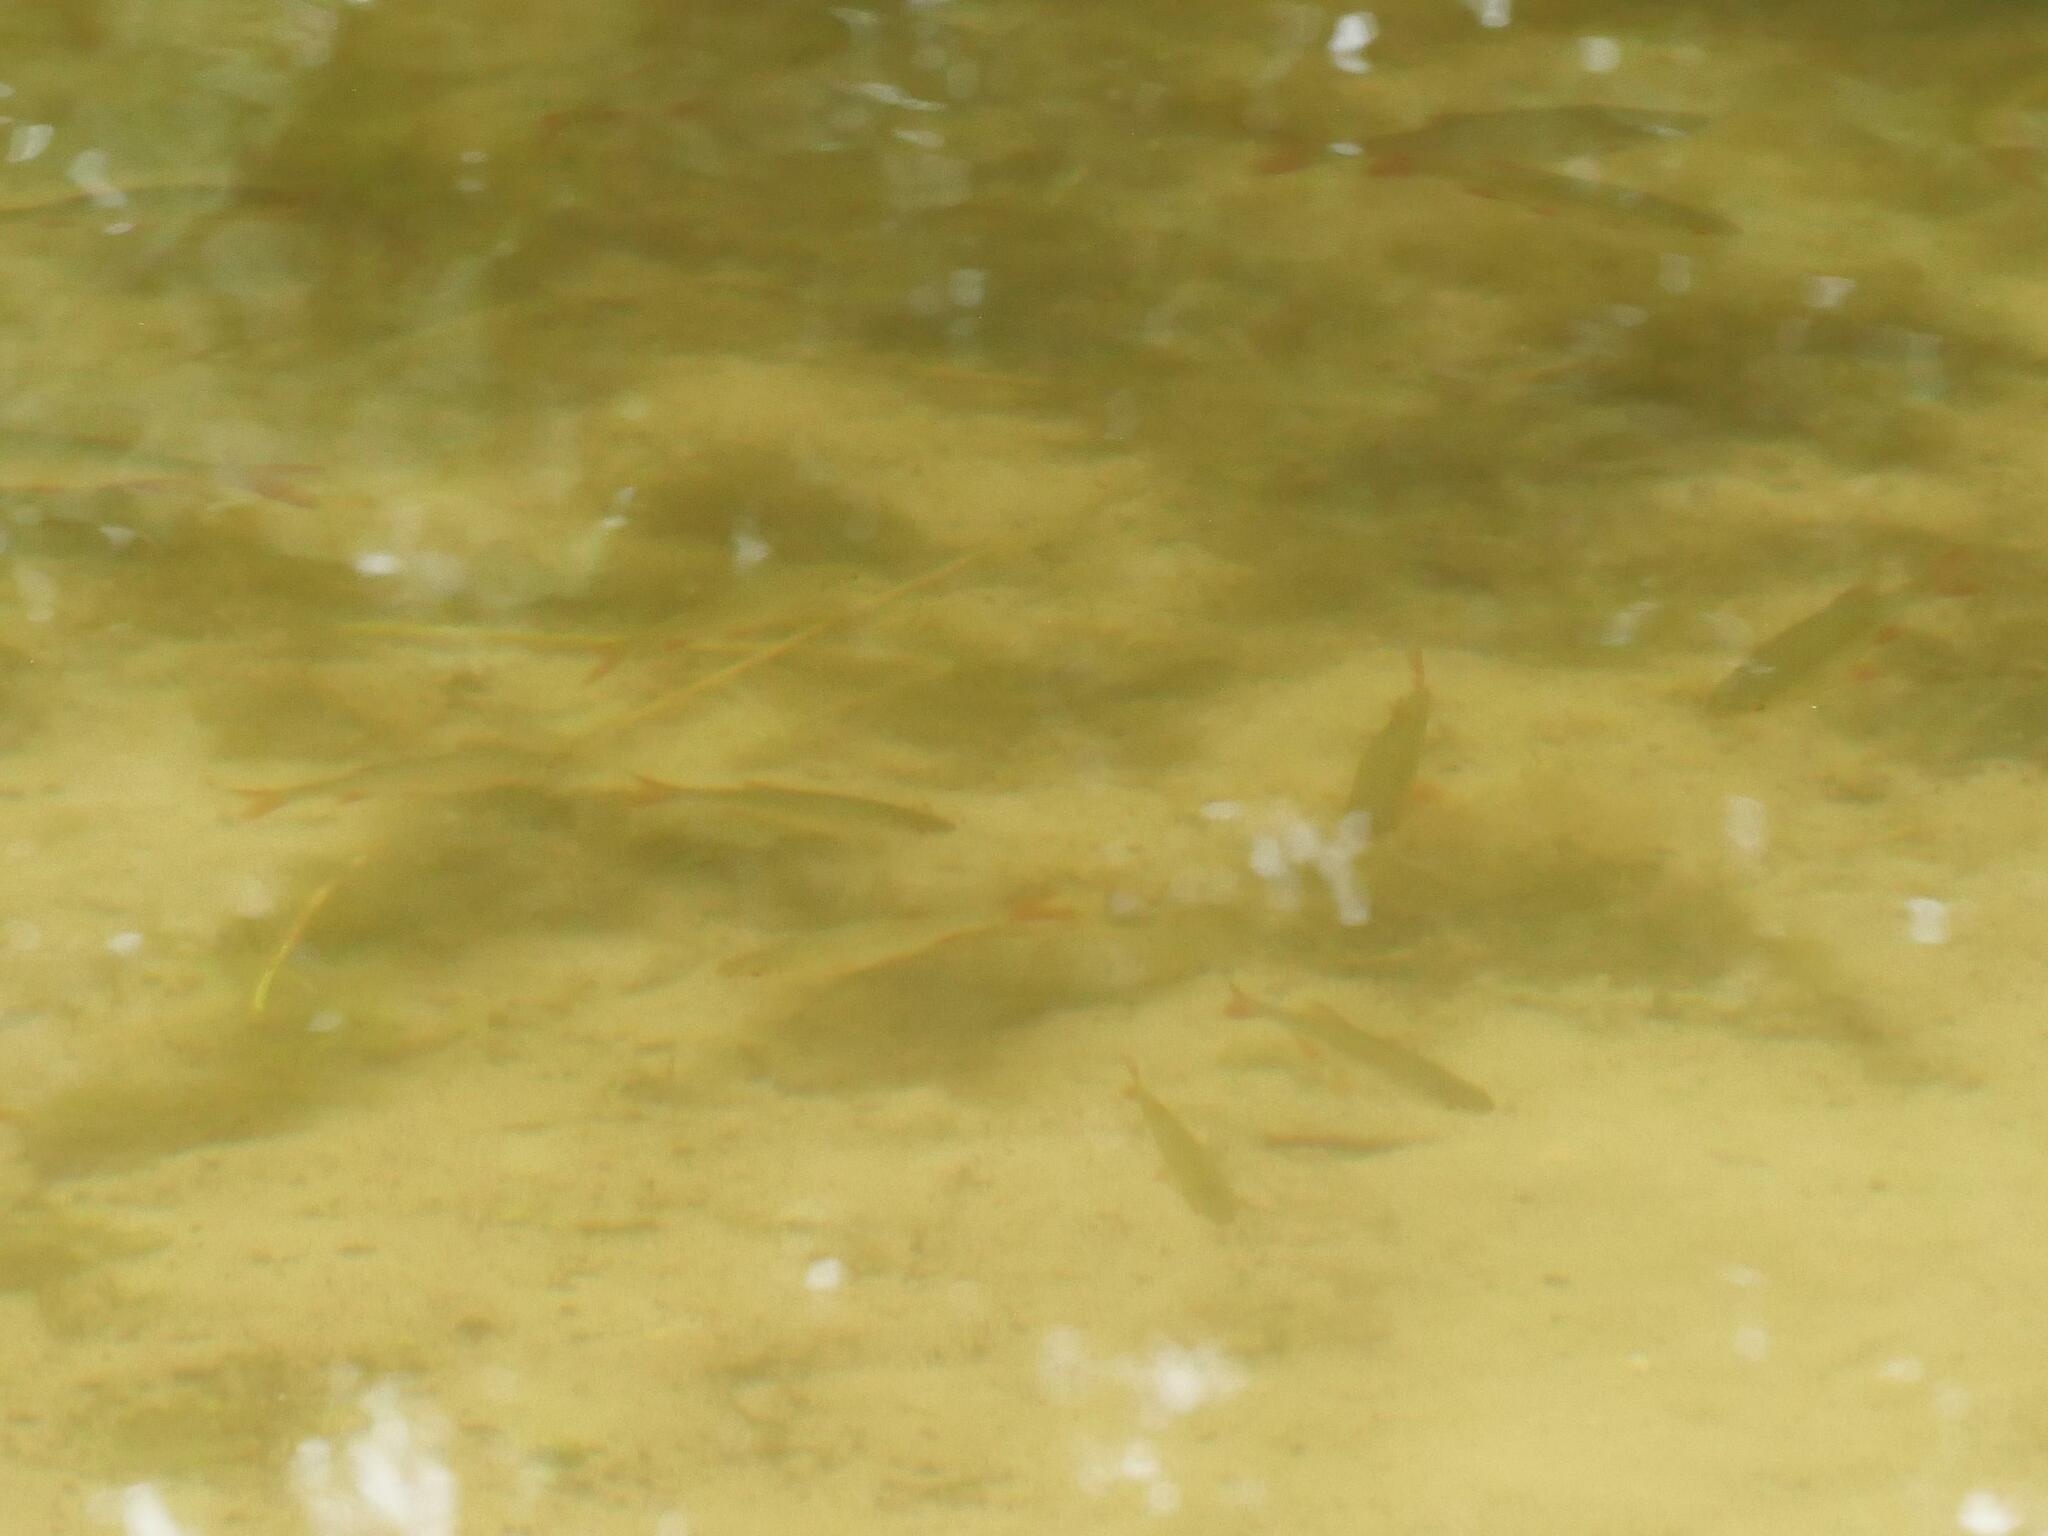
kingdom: Animalia
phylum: Chordata
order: Cypriniformes
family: Cyprinidae
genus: Scardinius
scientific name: Scardinius erythrophthalmus
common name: Rudd
